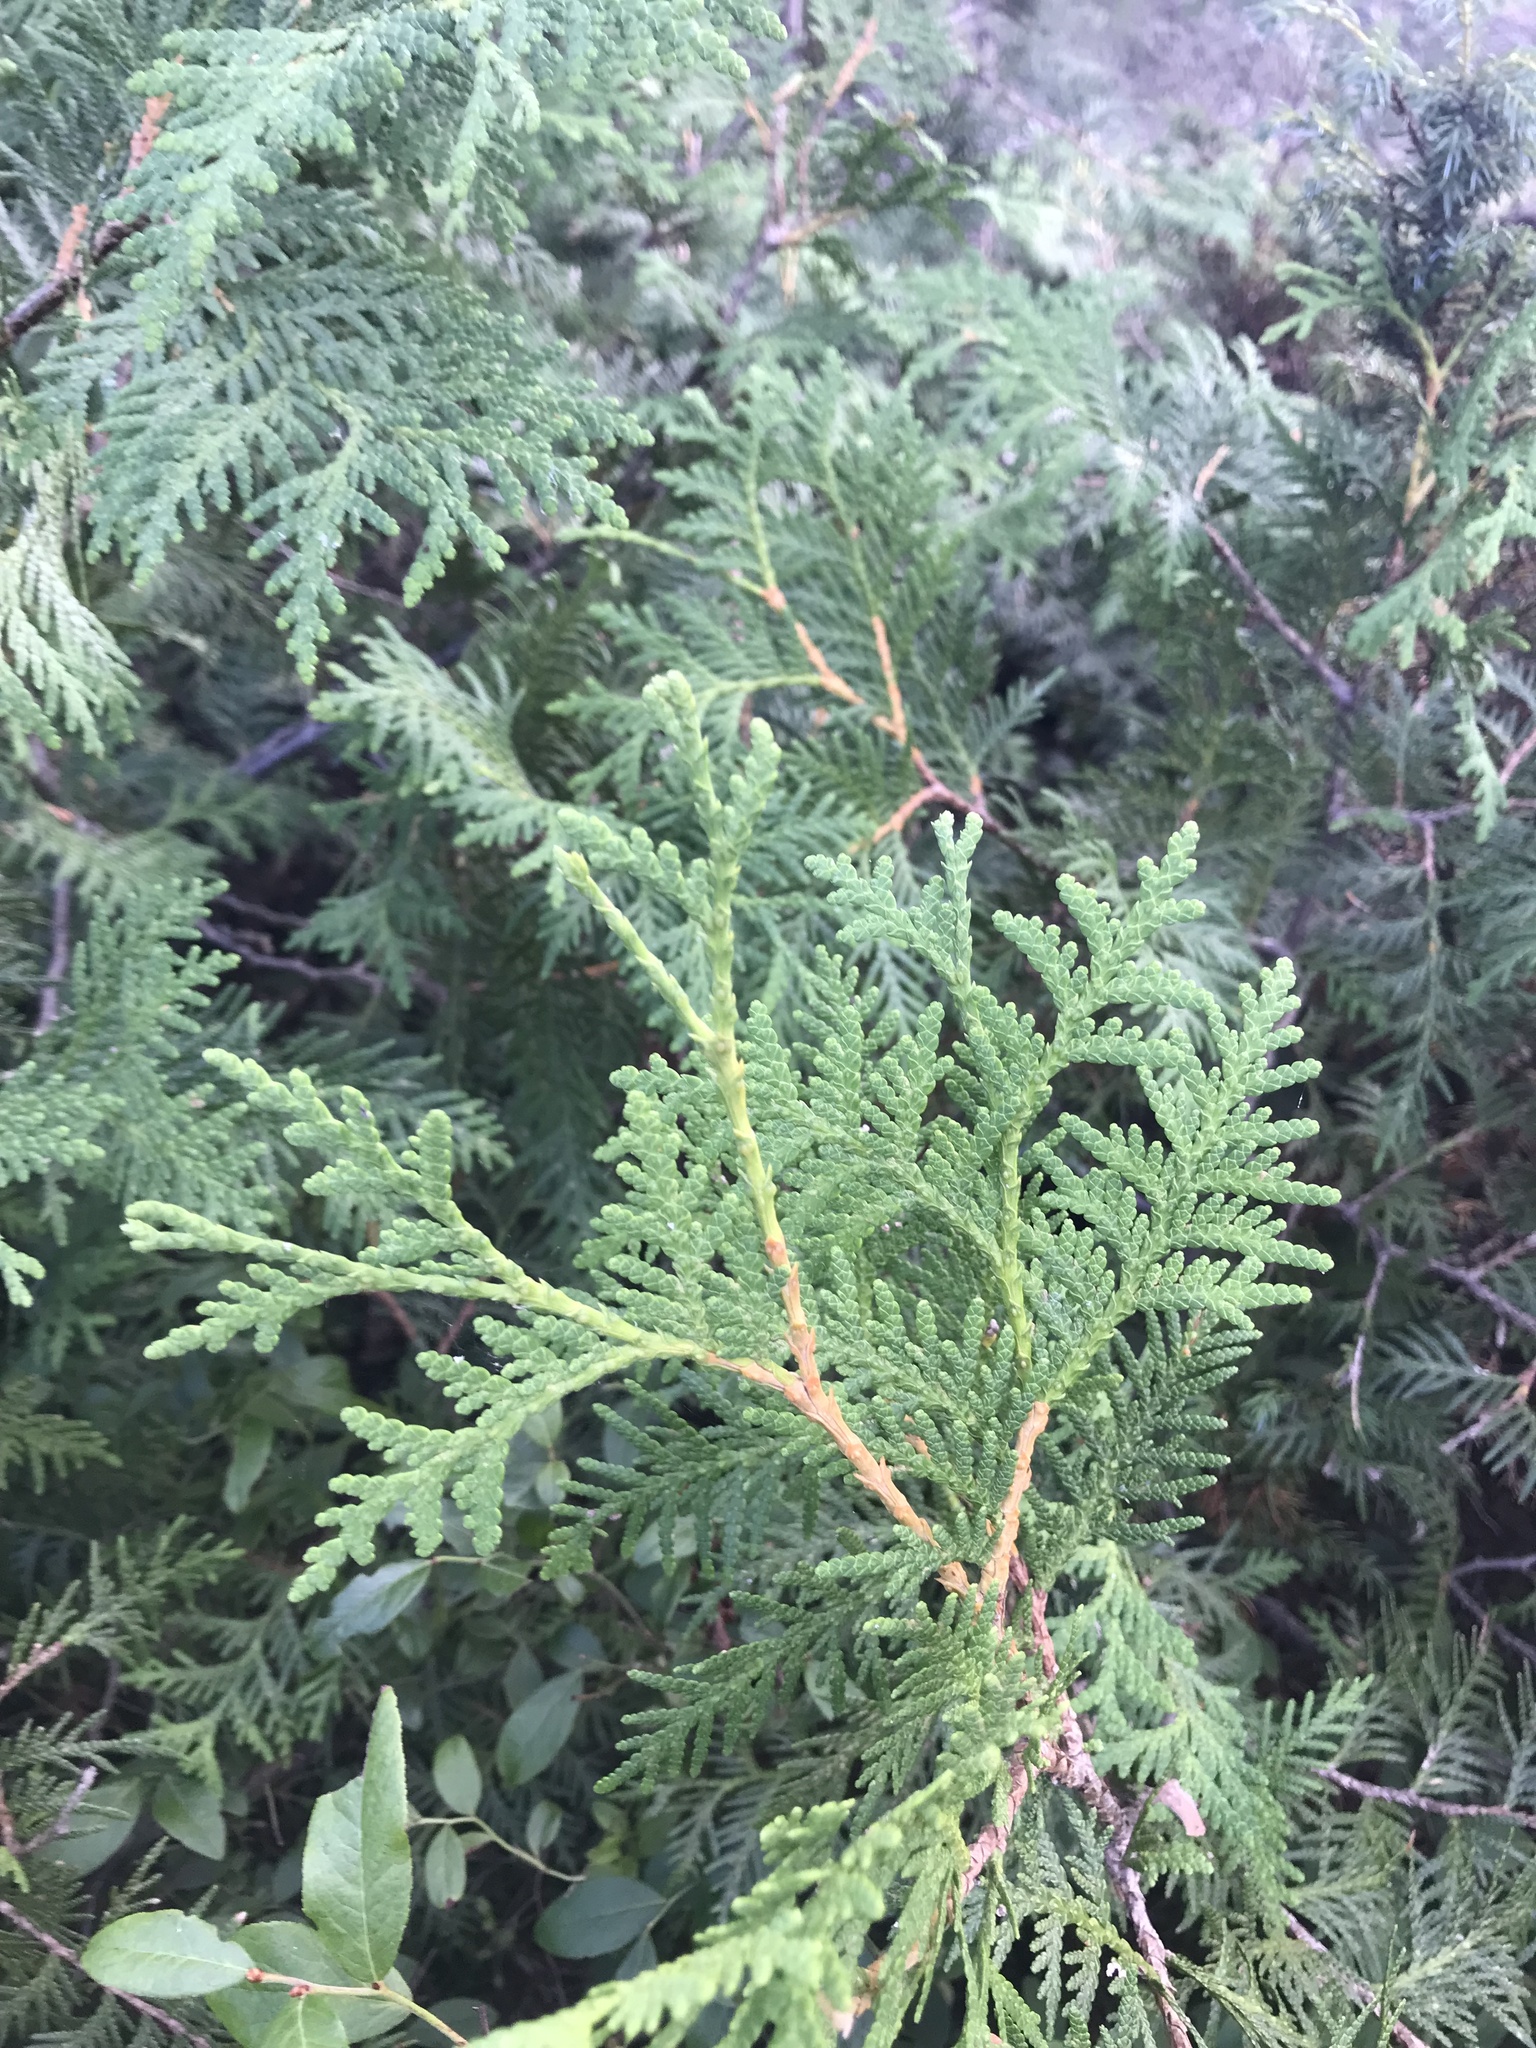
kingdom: Plantae
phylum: Tracheophyta
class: Pinopsida
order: Pinales
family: Cupressaceae
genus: Thuja
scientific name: Thuja occidentalis
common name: Northern white-cedar
